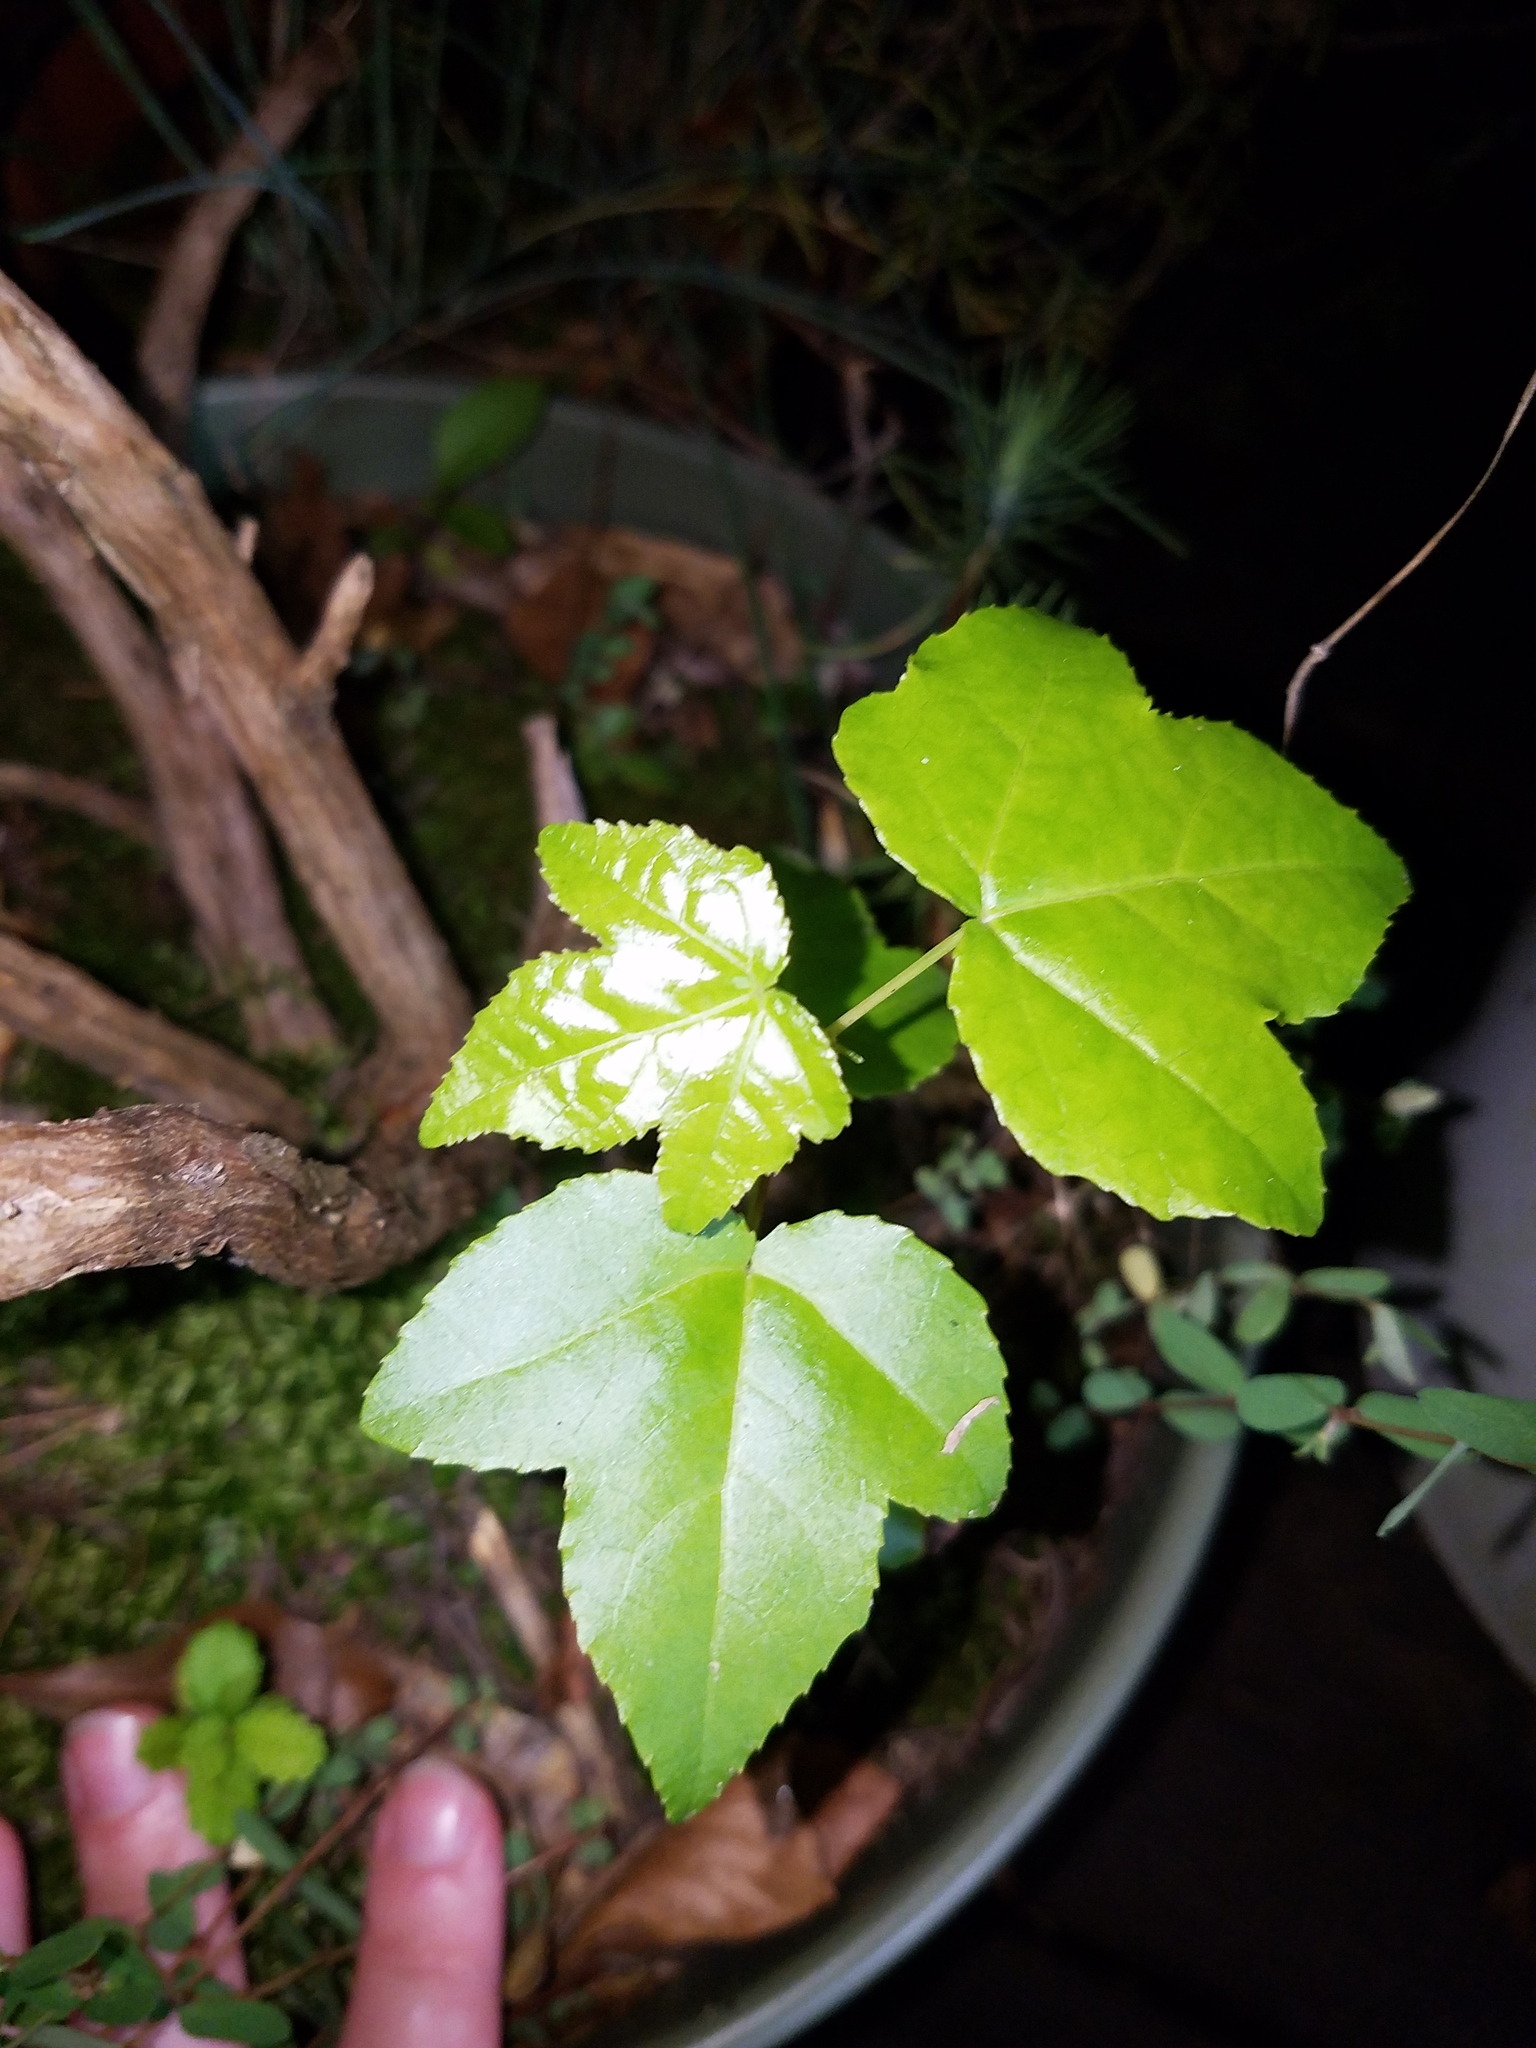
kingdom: Plantae
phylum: Tracheophyta
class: Magnoliopsida
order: Saxifragales
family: Altingiaceae
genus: Liquidambar
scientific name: Liquidambar styraciflua
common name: Sweet gum
